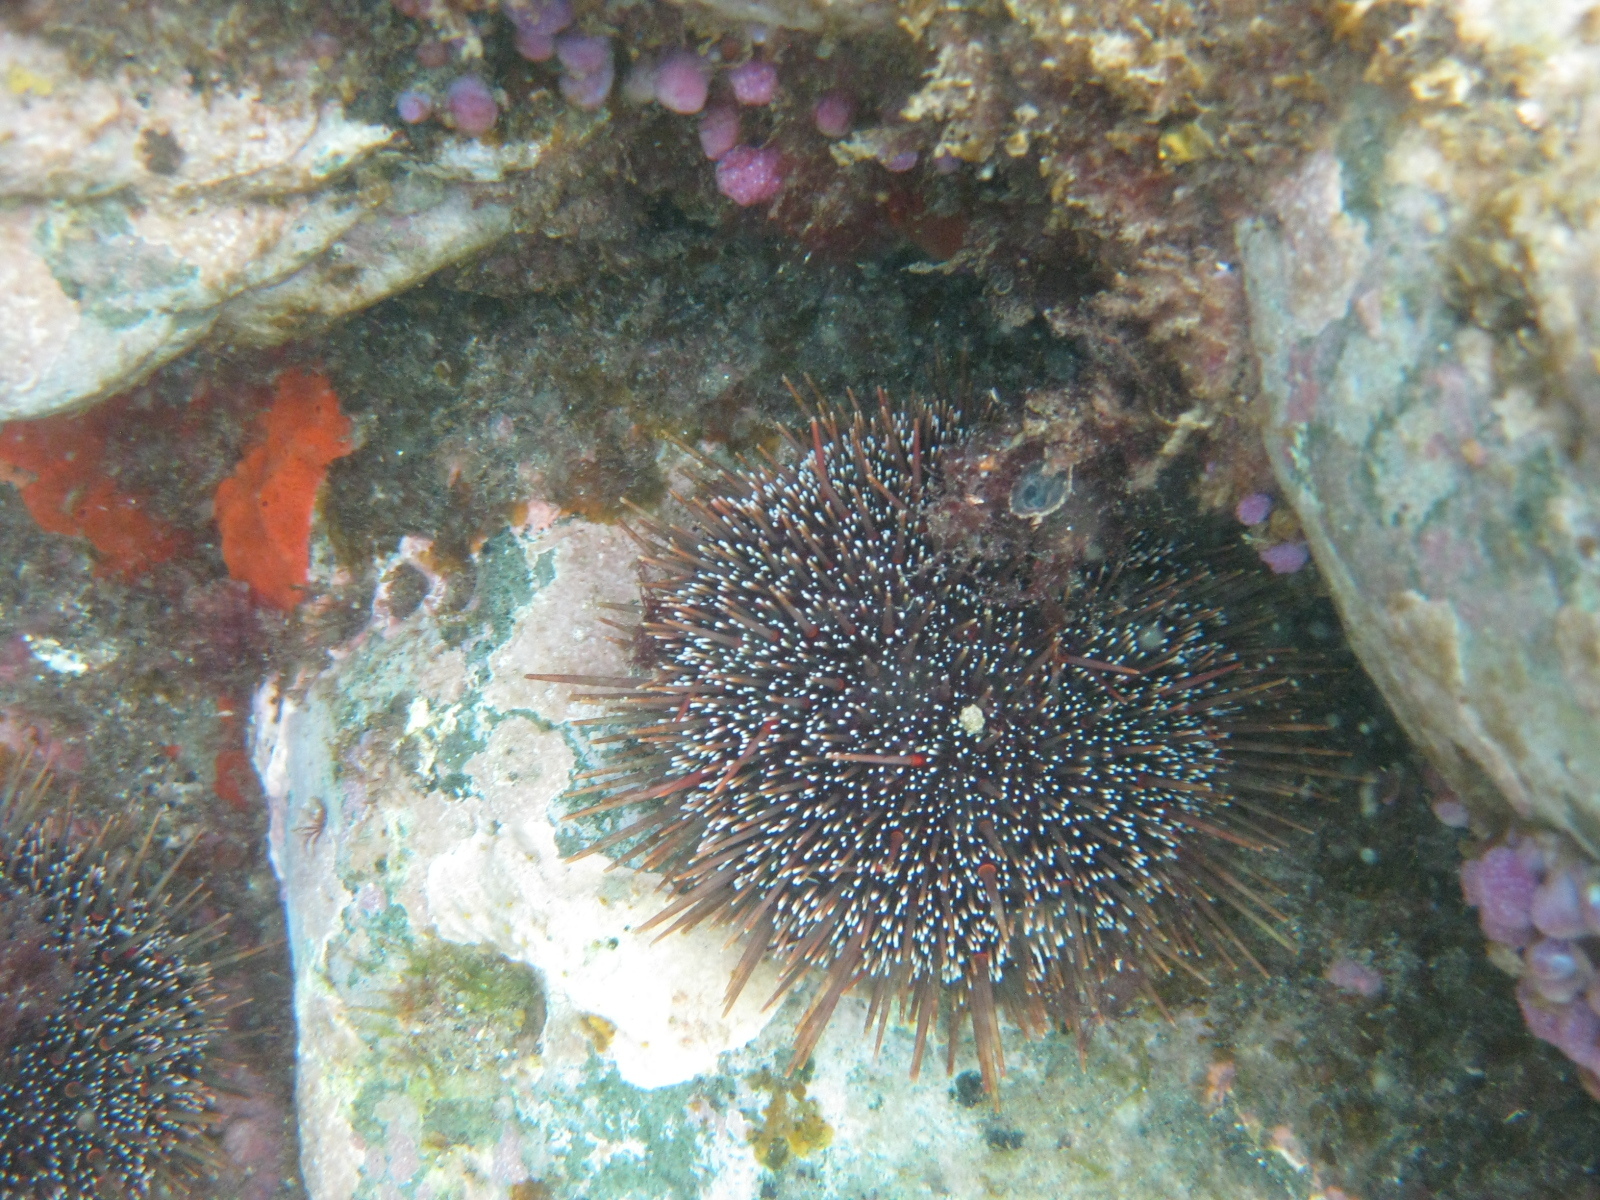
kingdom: Animalia
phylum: Echinodermata
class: Echinoidea
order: Camarodonta
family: Echinometridae
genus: Evechinus
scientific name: Evechinus chloroticus
